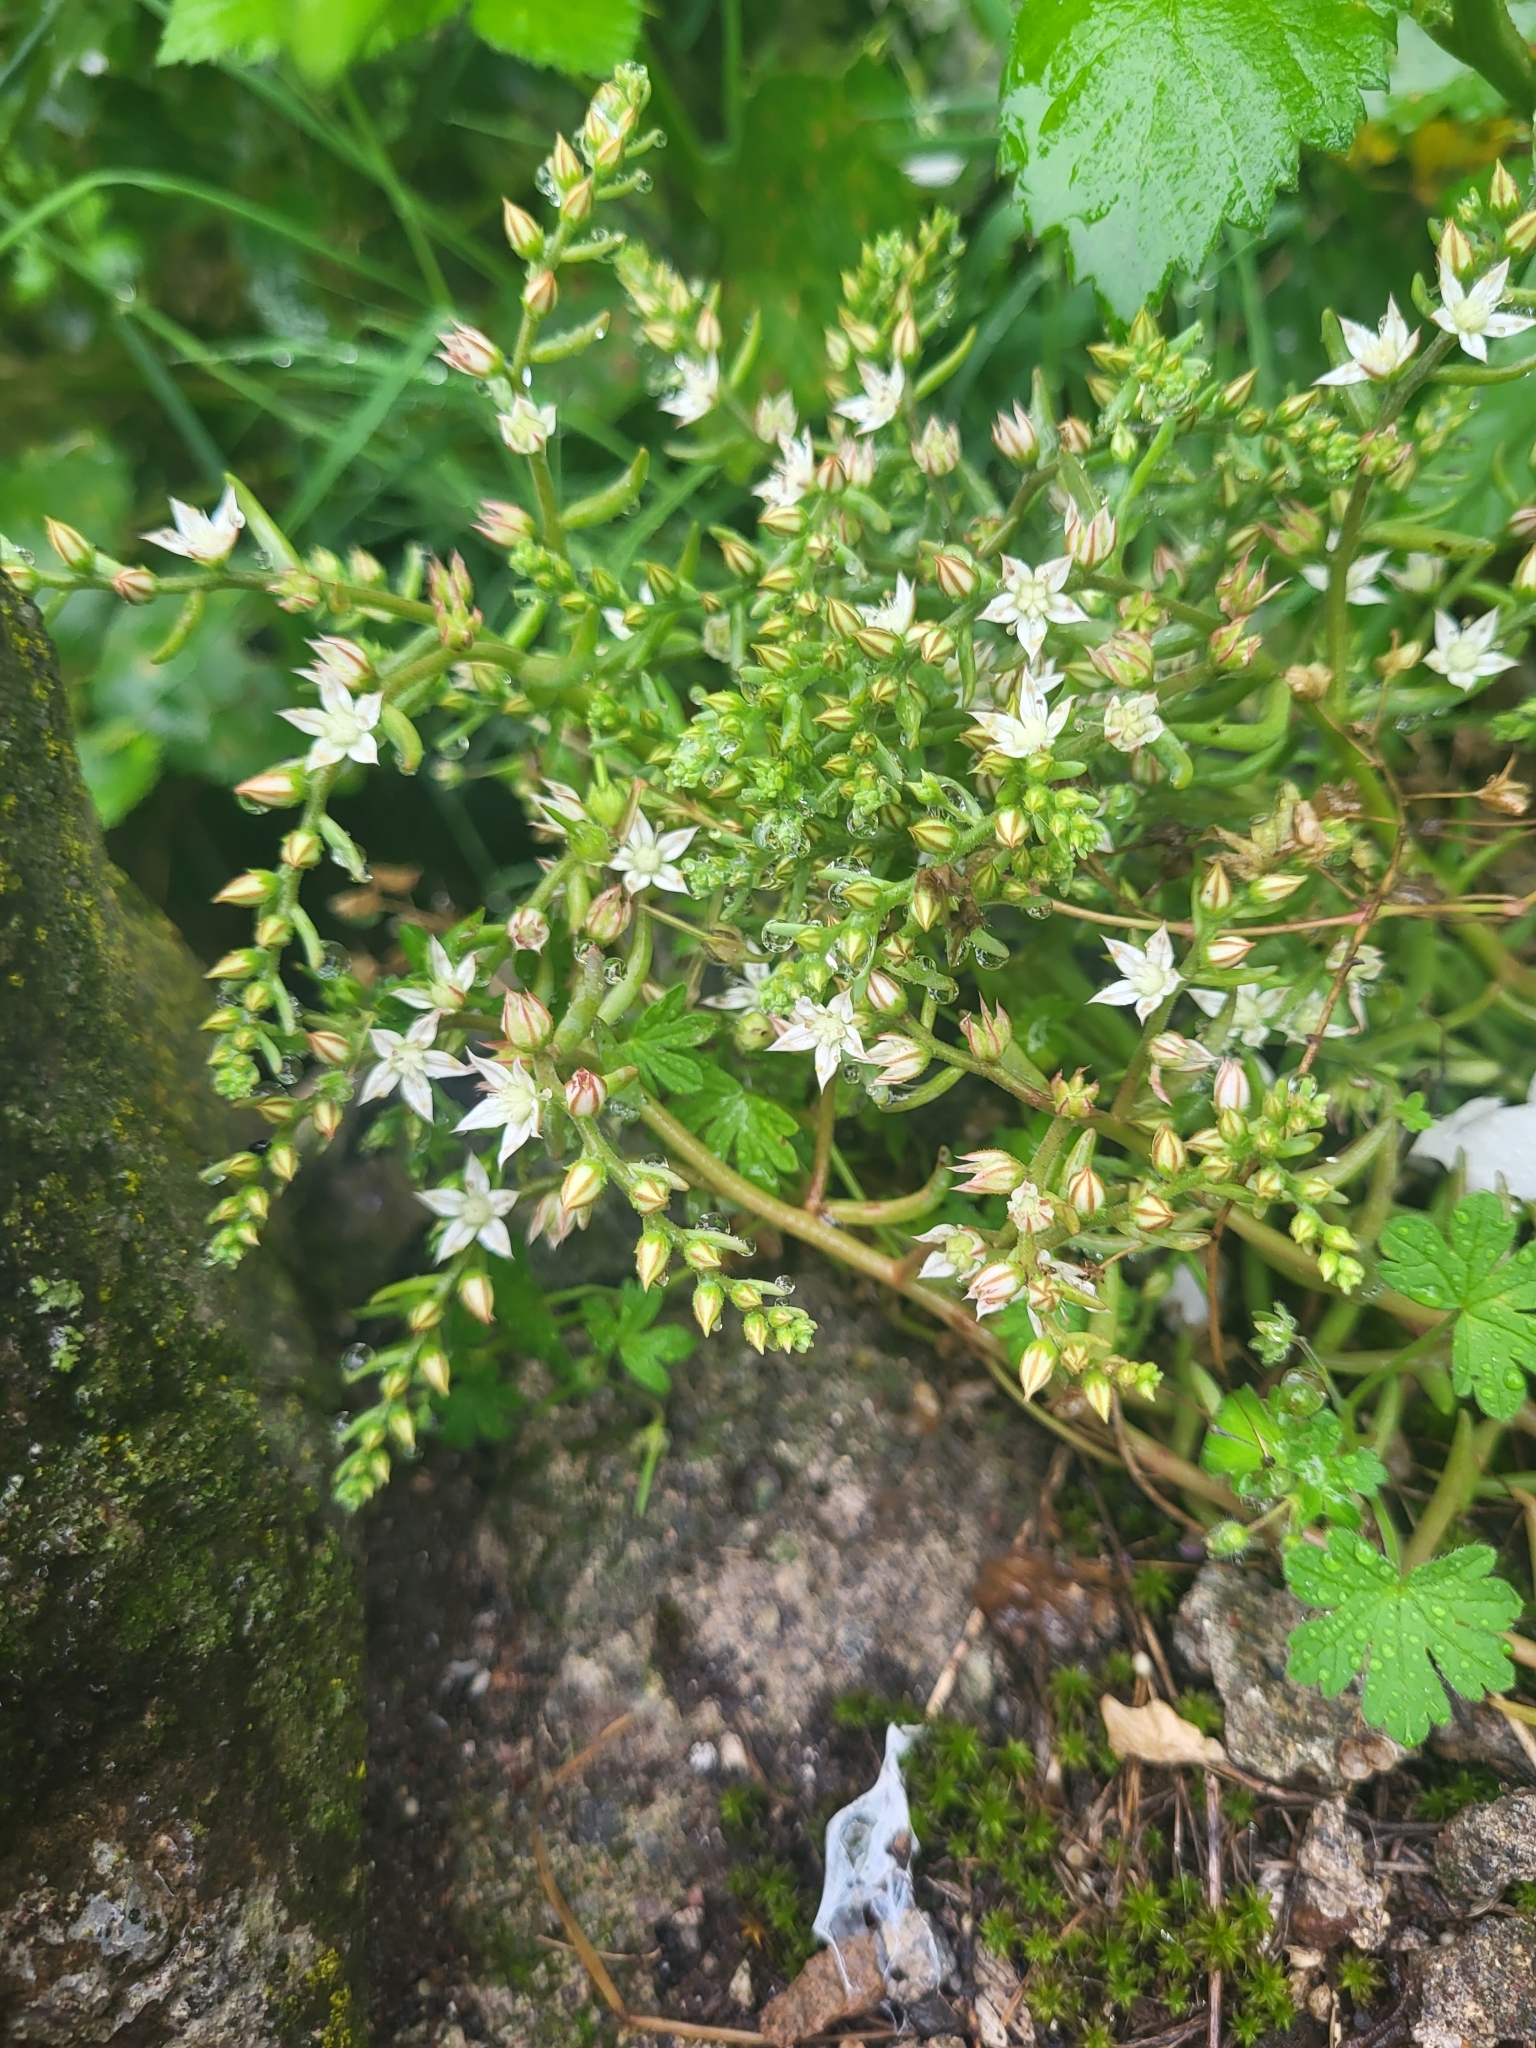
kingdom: Plantae
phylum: Tracheophyta
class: Magnoliopsida
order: Saxifragales
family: Crassulaceae
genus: Sedum
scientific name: Sedum pallidum
